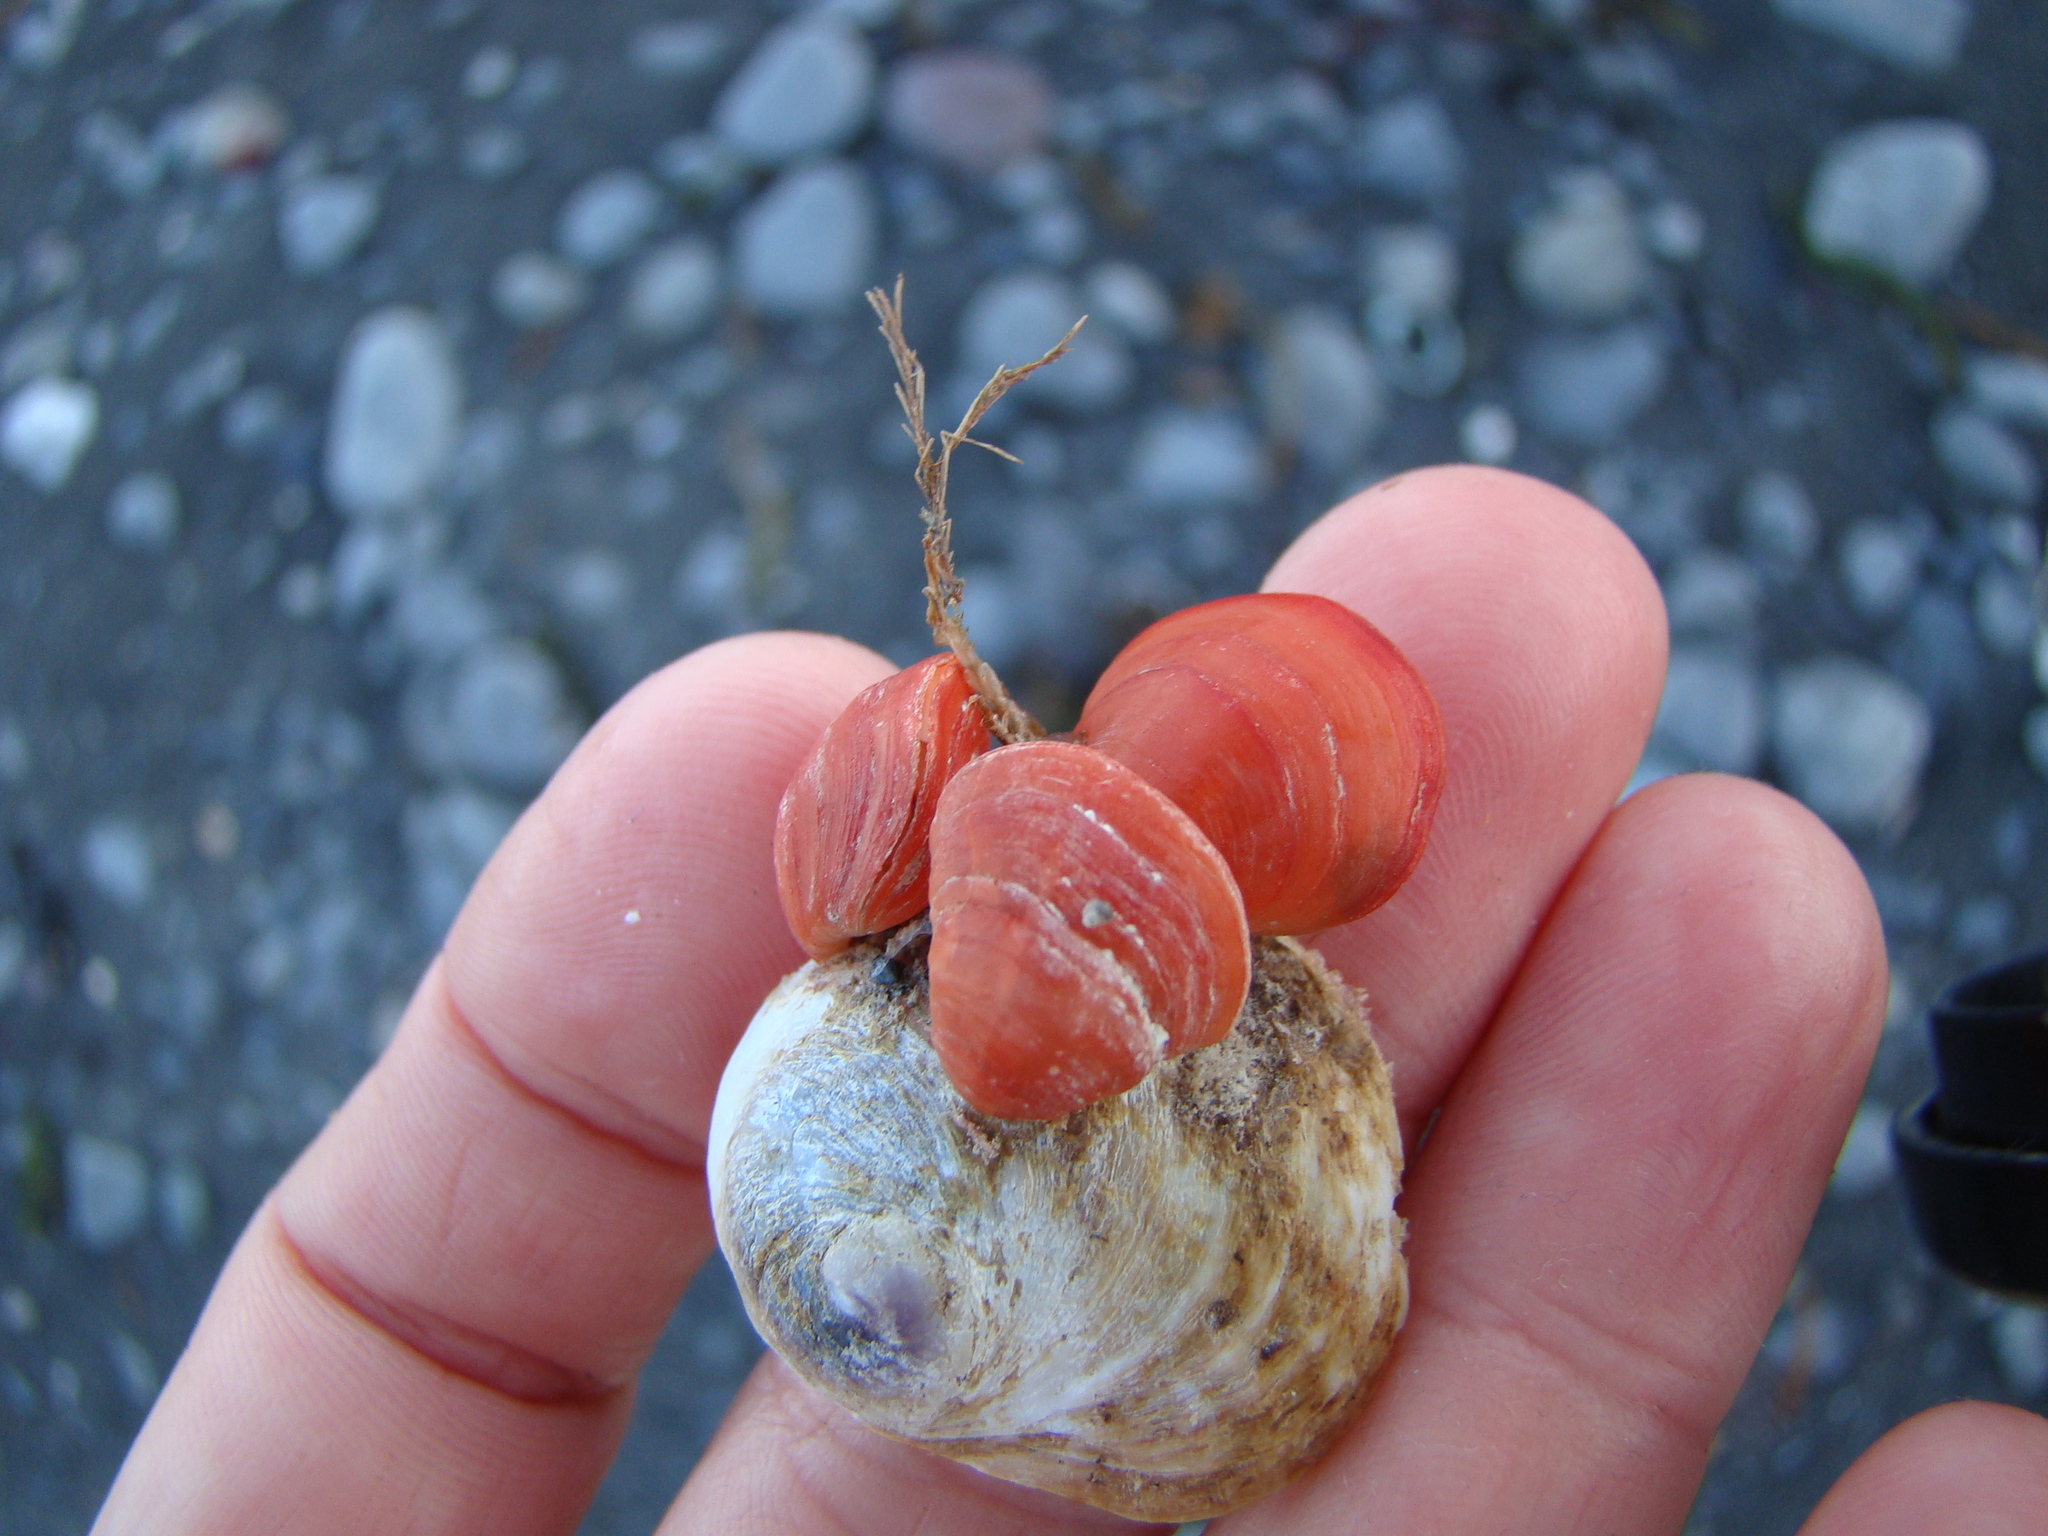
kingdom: Animalia
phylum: Brachiopoda
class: Rhynchonellata
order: Terebratulida
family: Terebratellidae
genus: Calloria
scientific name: Calloria inconspicua
